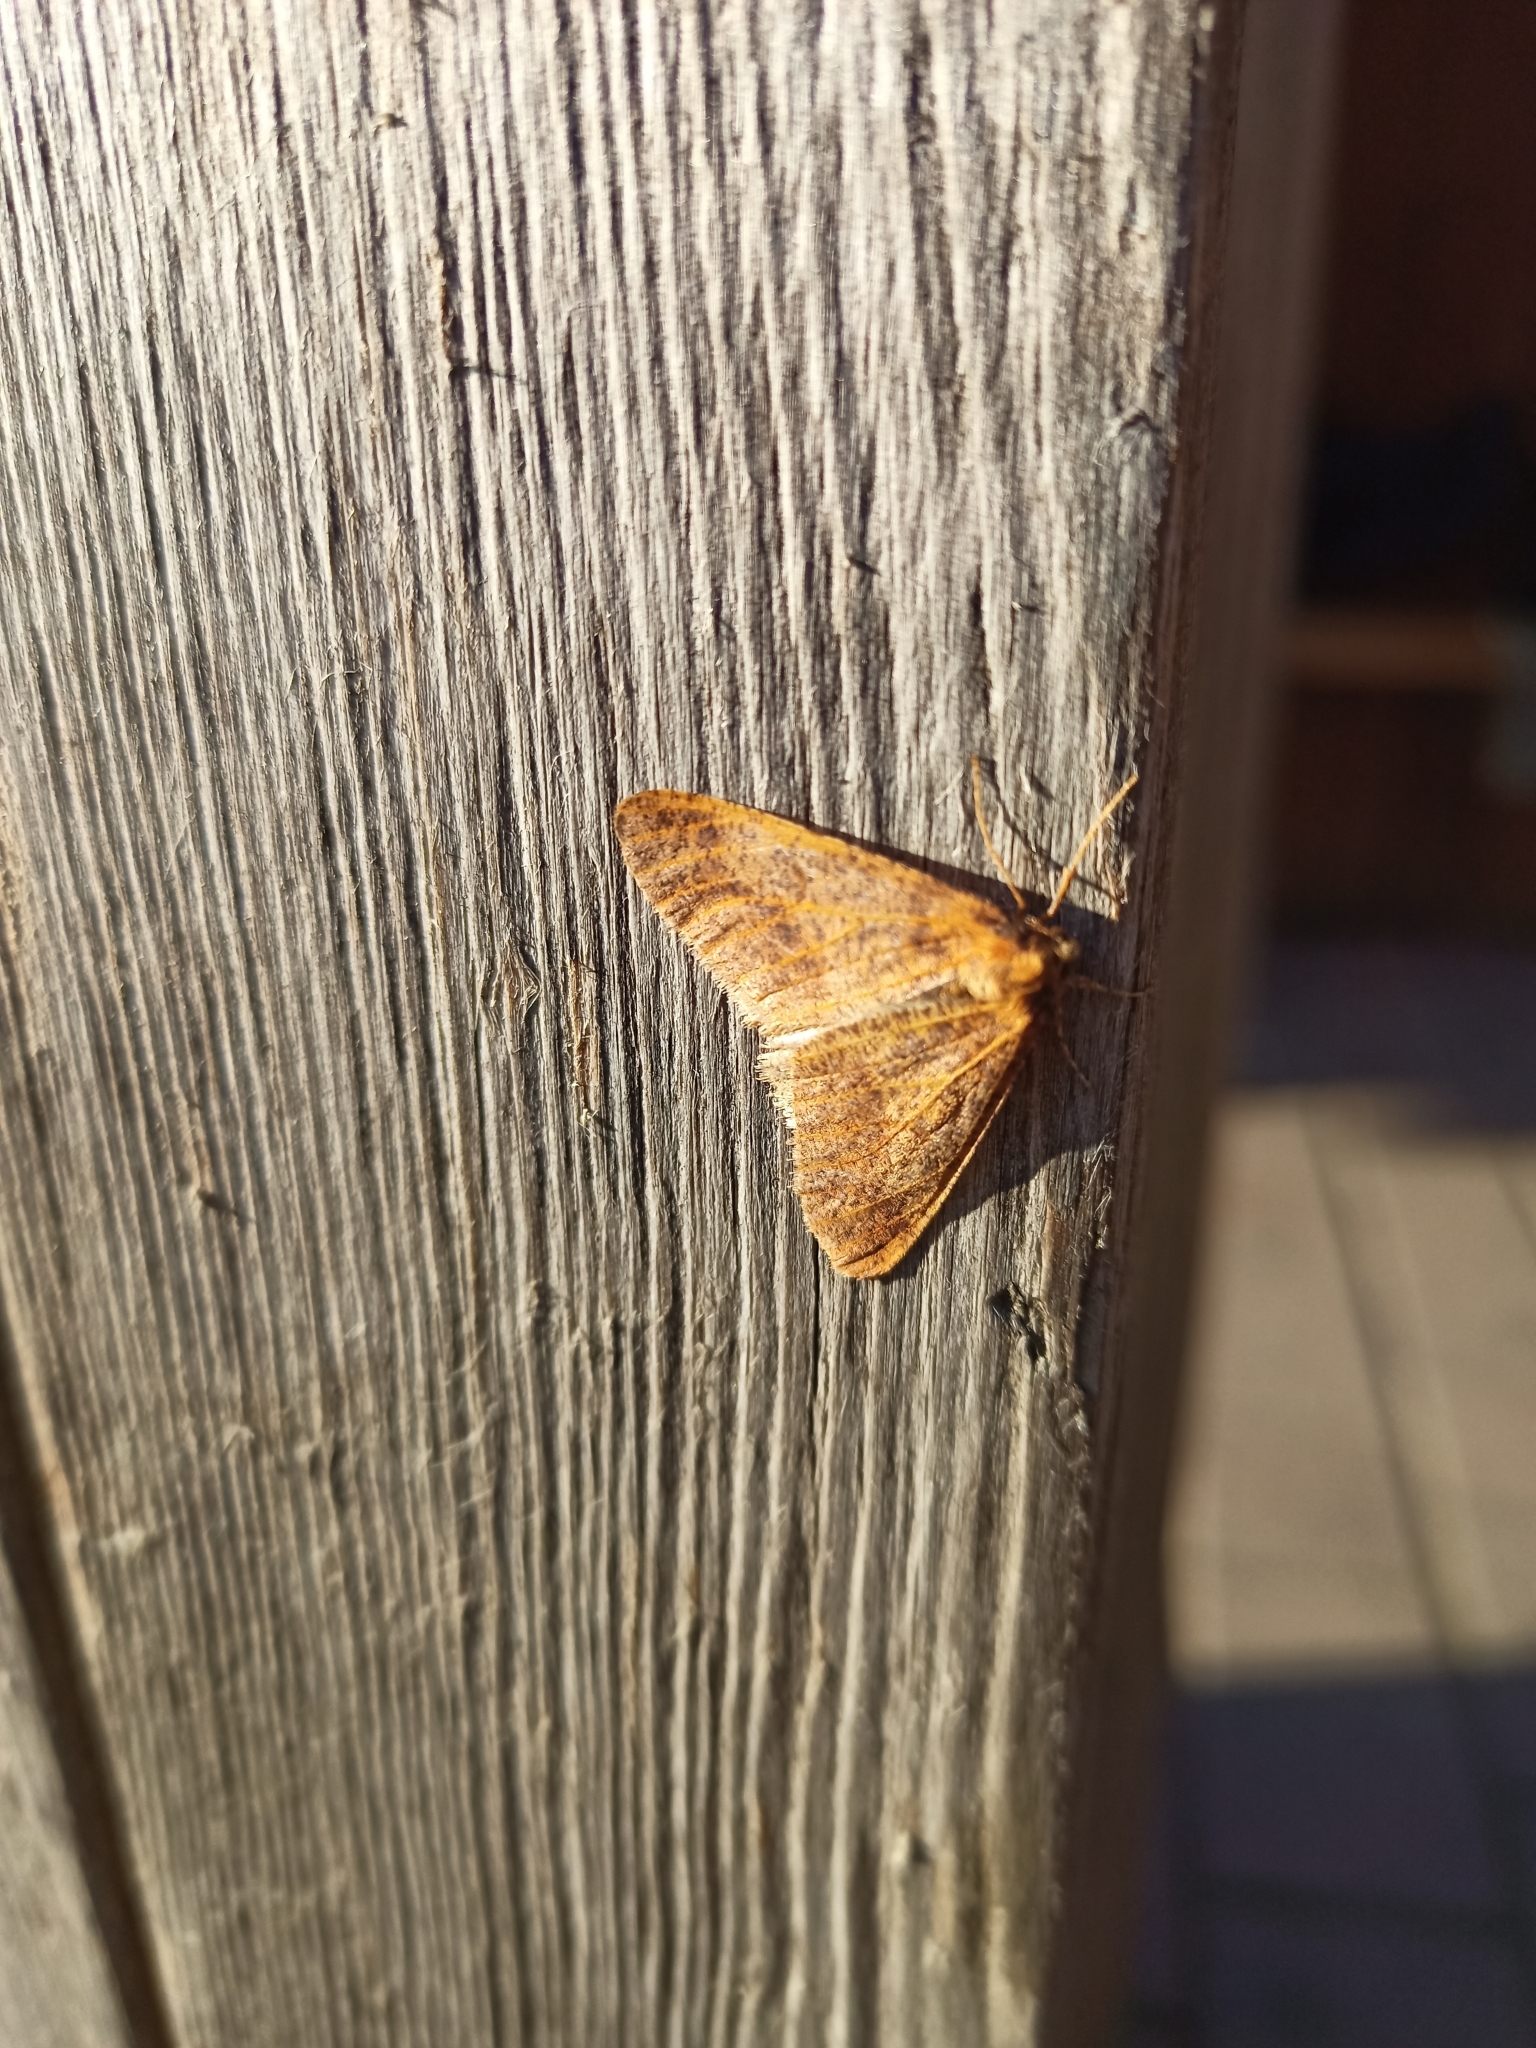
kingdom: Animalia
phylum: Arthropoda
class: Insecta
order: Lepidoptera
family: Geometridae
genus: Erannis
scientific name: Erannis defoliaria
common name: Mottled umber
